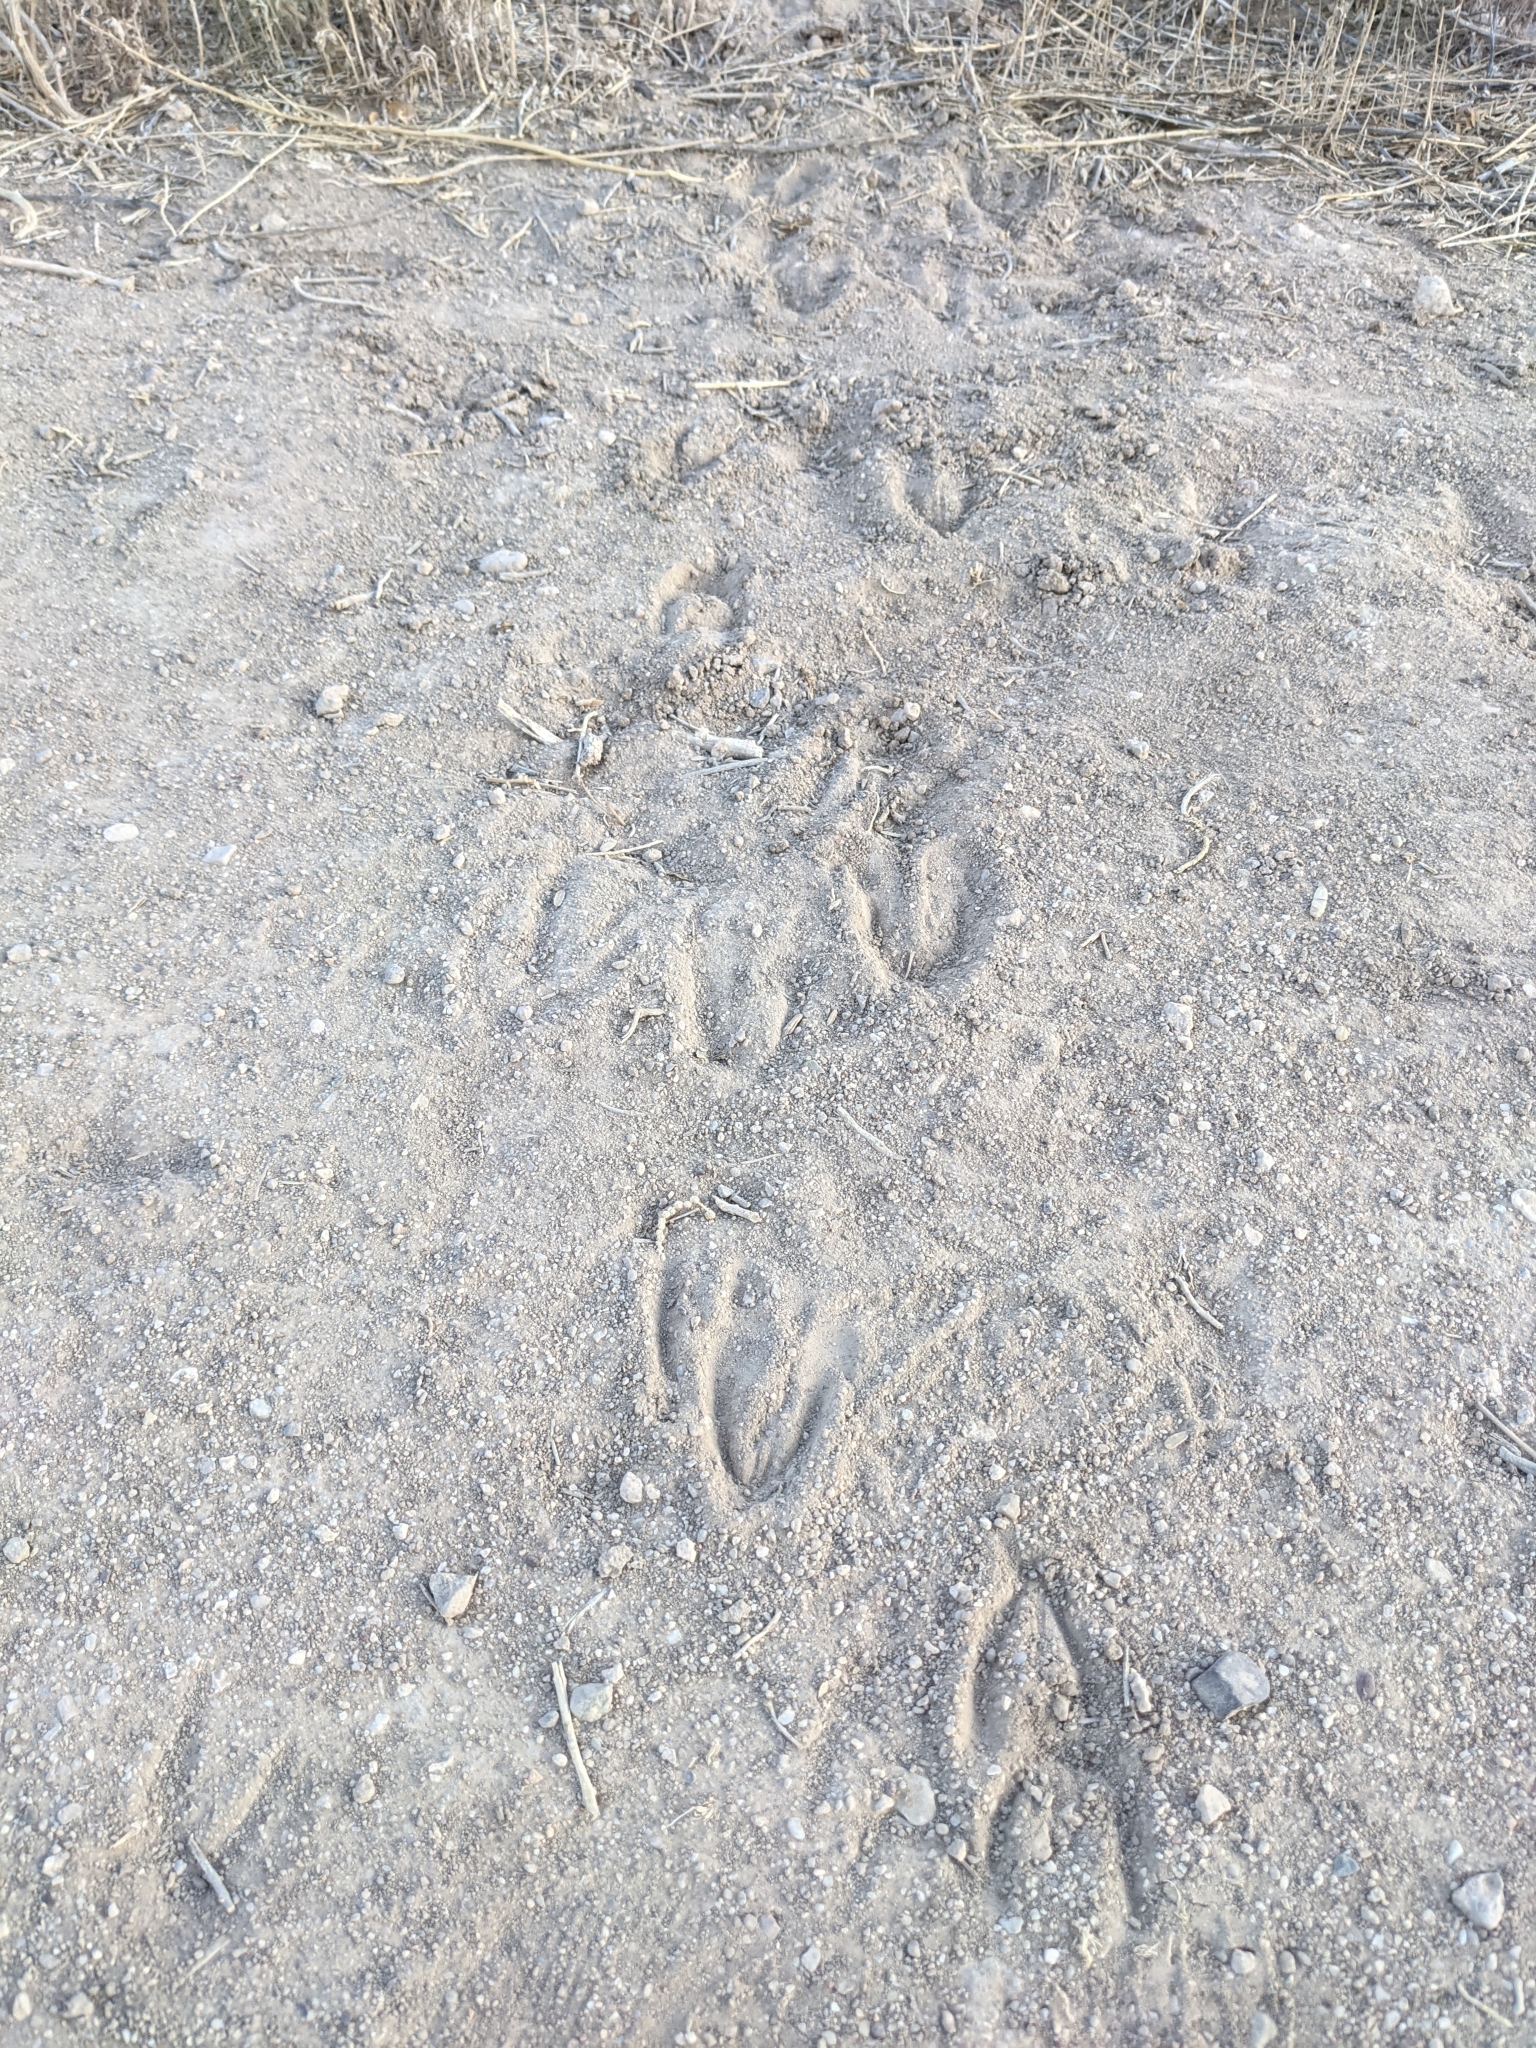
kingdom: Animalia
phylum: Chordata
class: Mammalia
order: Artiodactyla
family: Cervidae
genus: Odocoileus
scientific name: Odocoileus virginianus
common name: White-tailed deer
